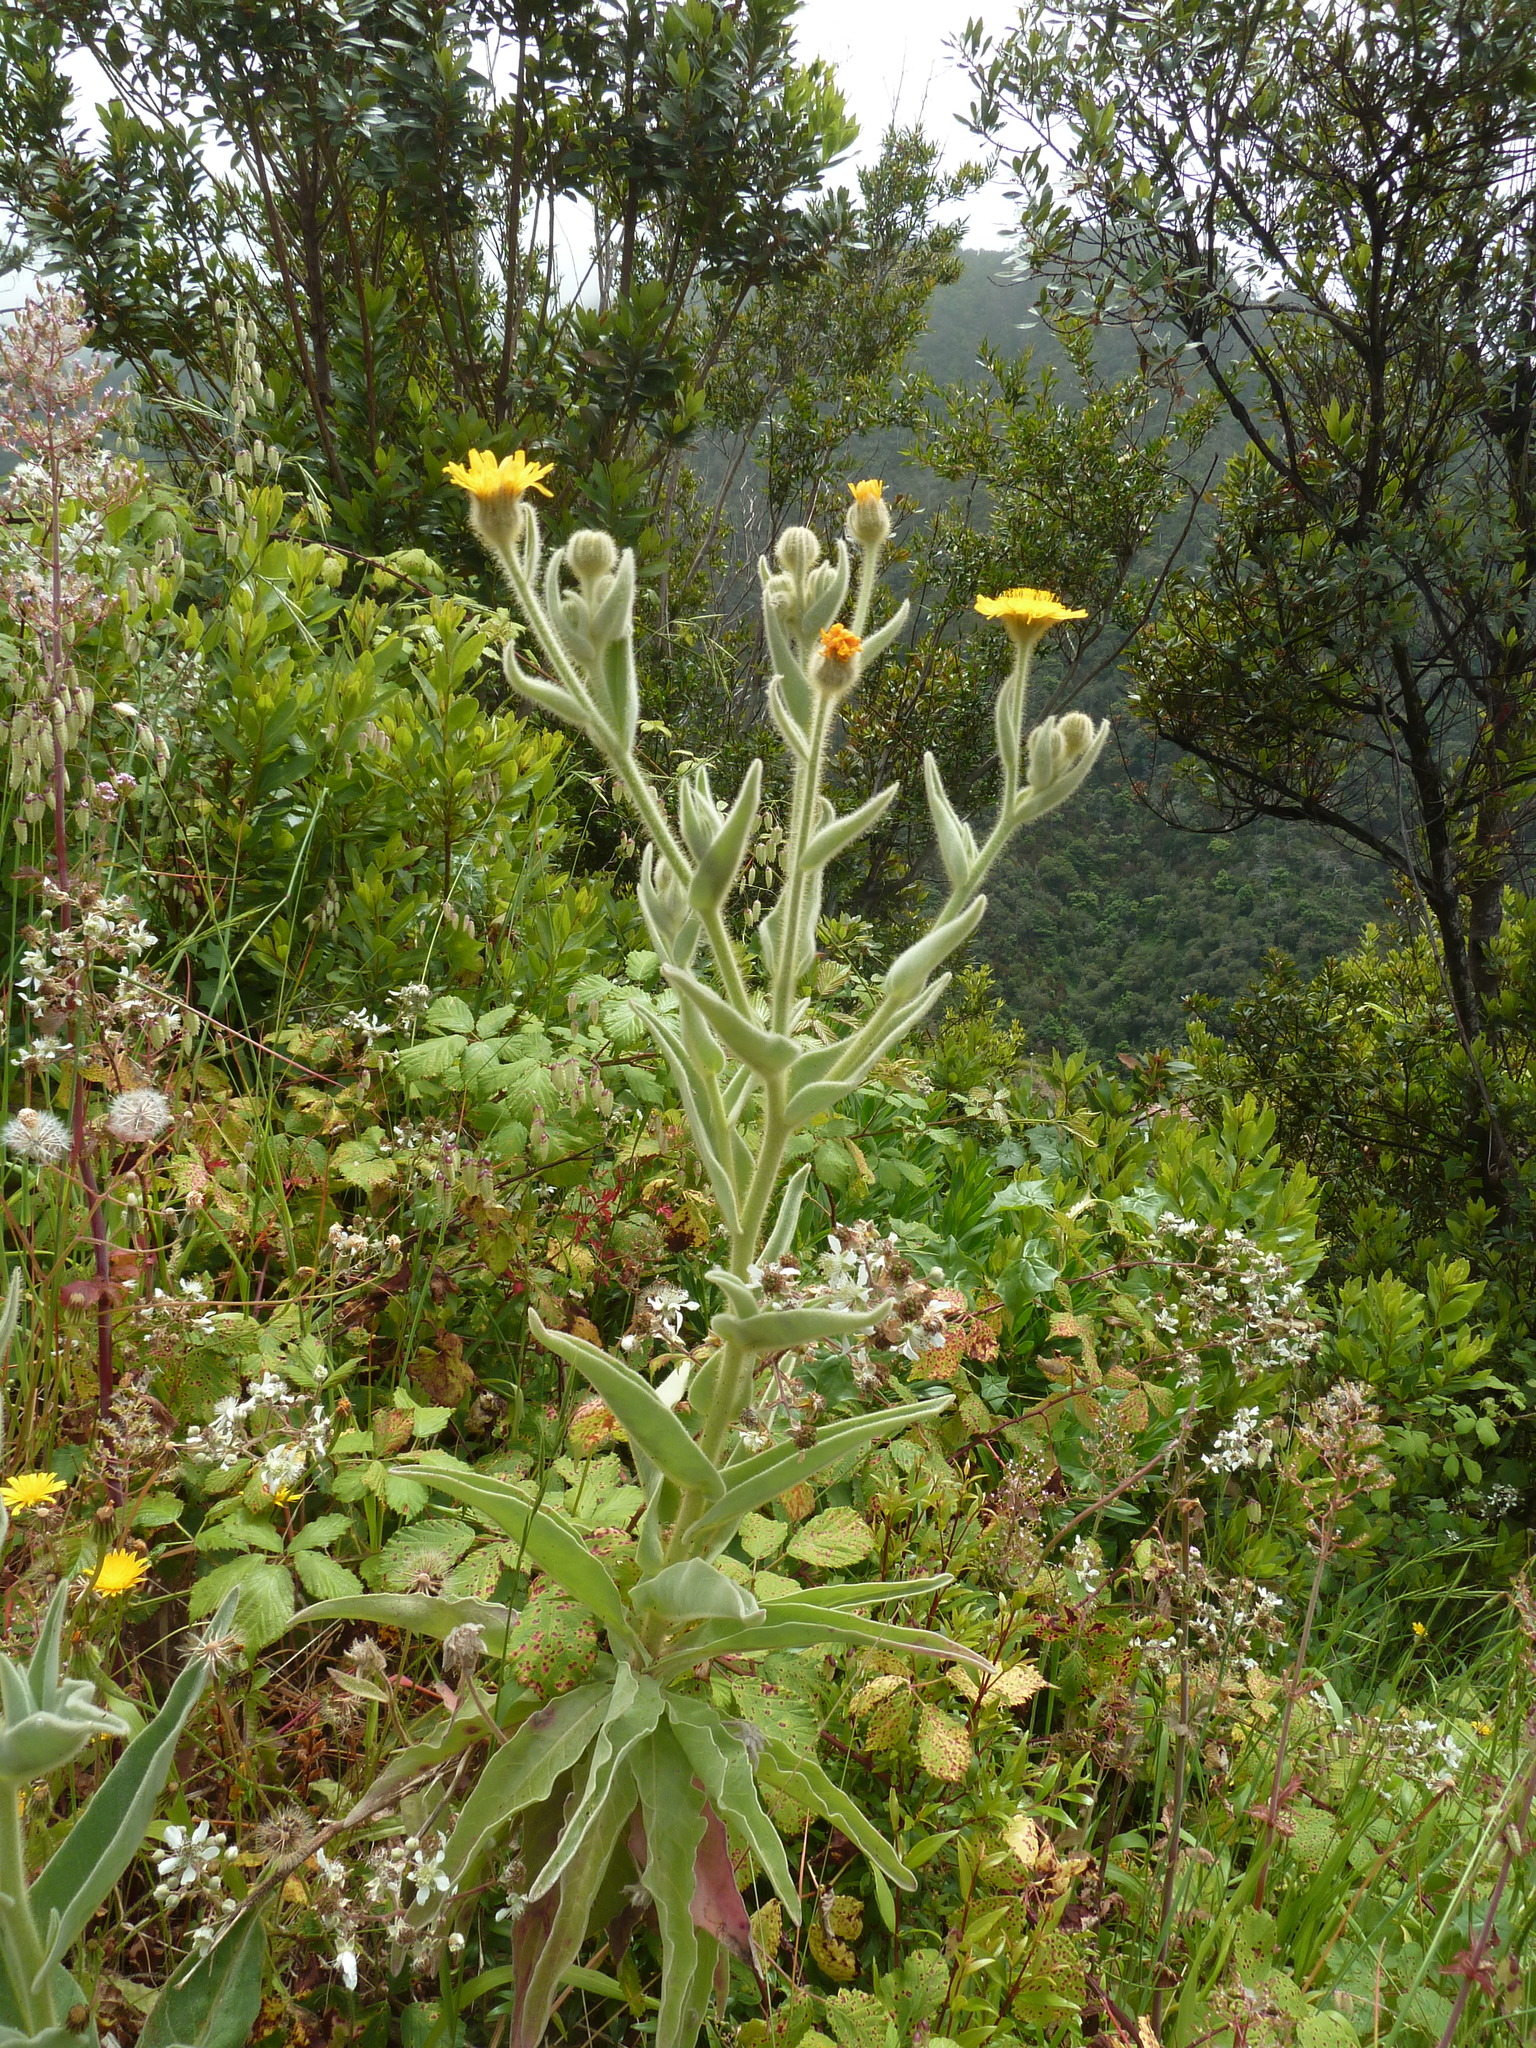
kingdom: Plantae
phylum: Tracheophyta
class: Magnoliopsida
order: Asterales
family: Asteraceae
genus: Andryala
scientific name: Andryala glandulosa
